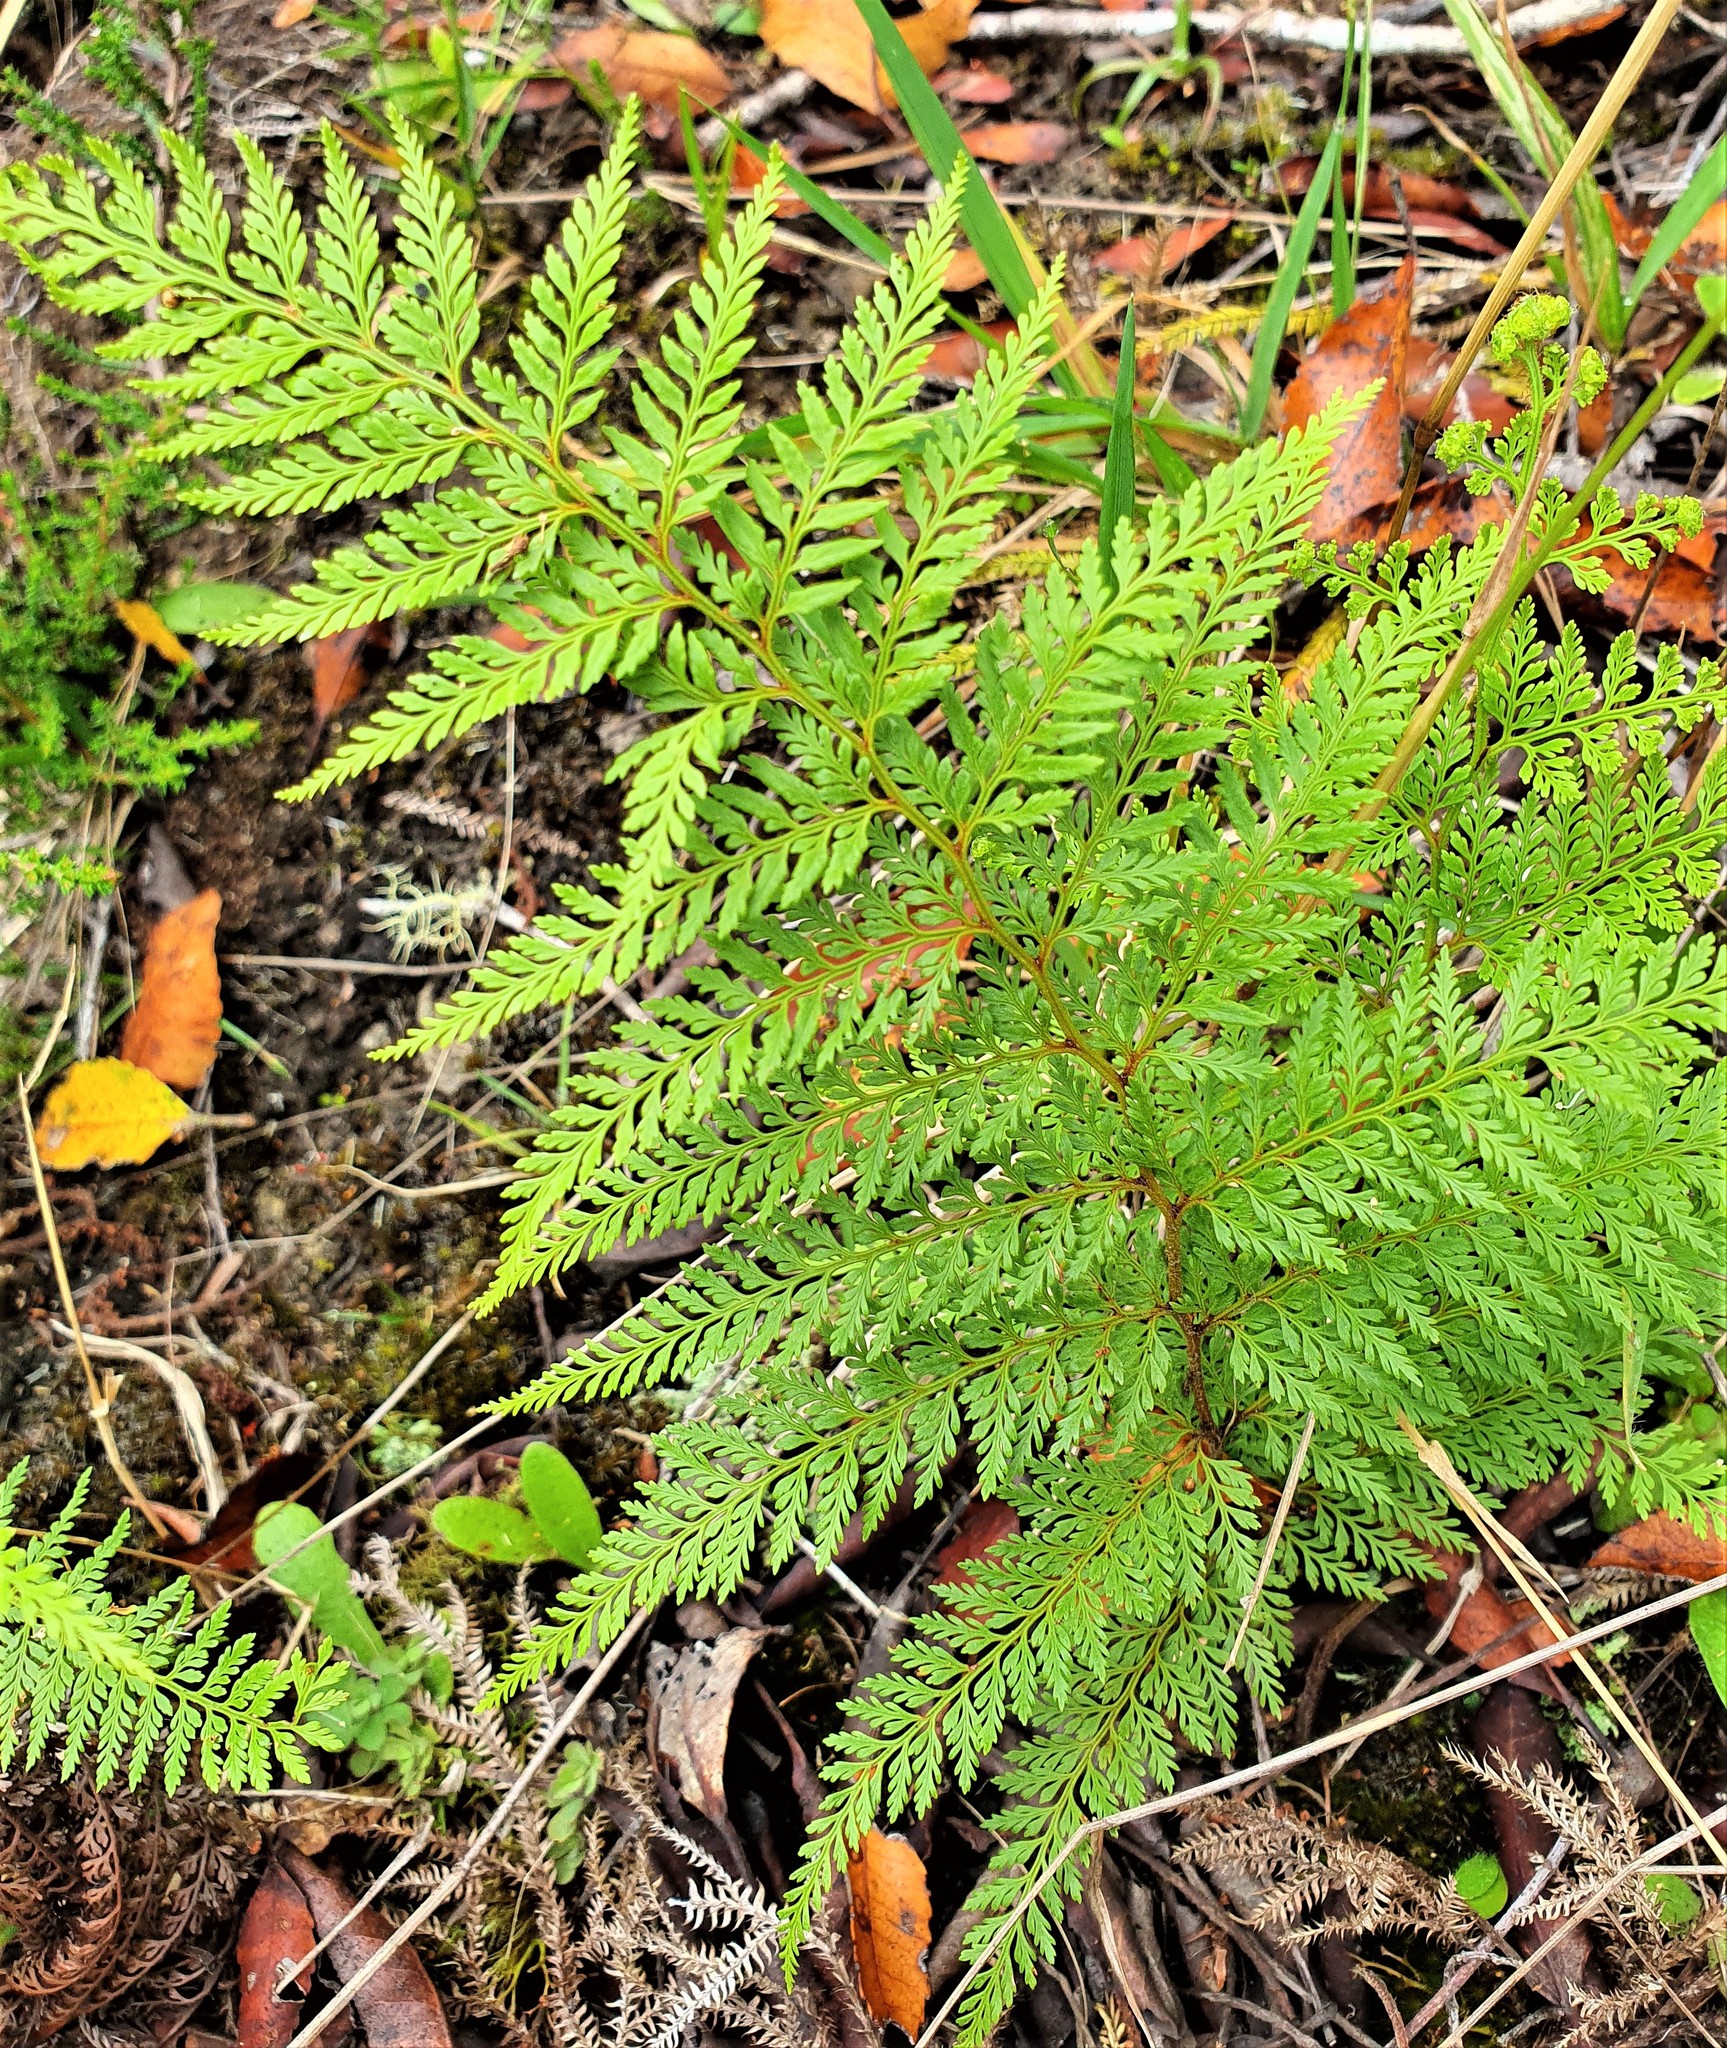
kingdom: Plantae
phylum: Tracheophyta
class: Polypodiopsida
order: Polypodiales
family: Dennstaedtiaceae
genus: Paesia
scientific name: Paesia scaberula
